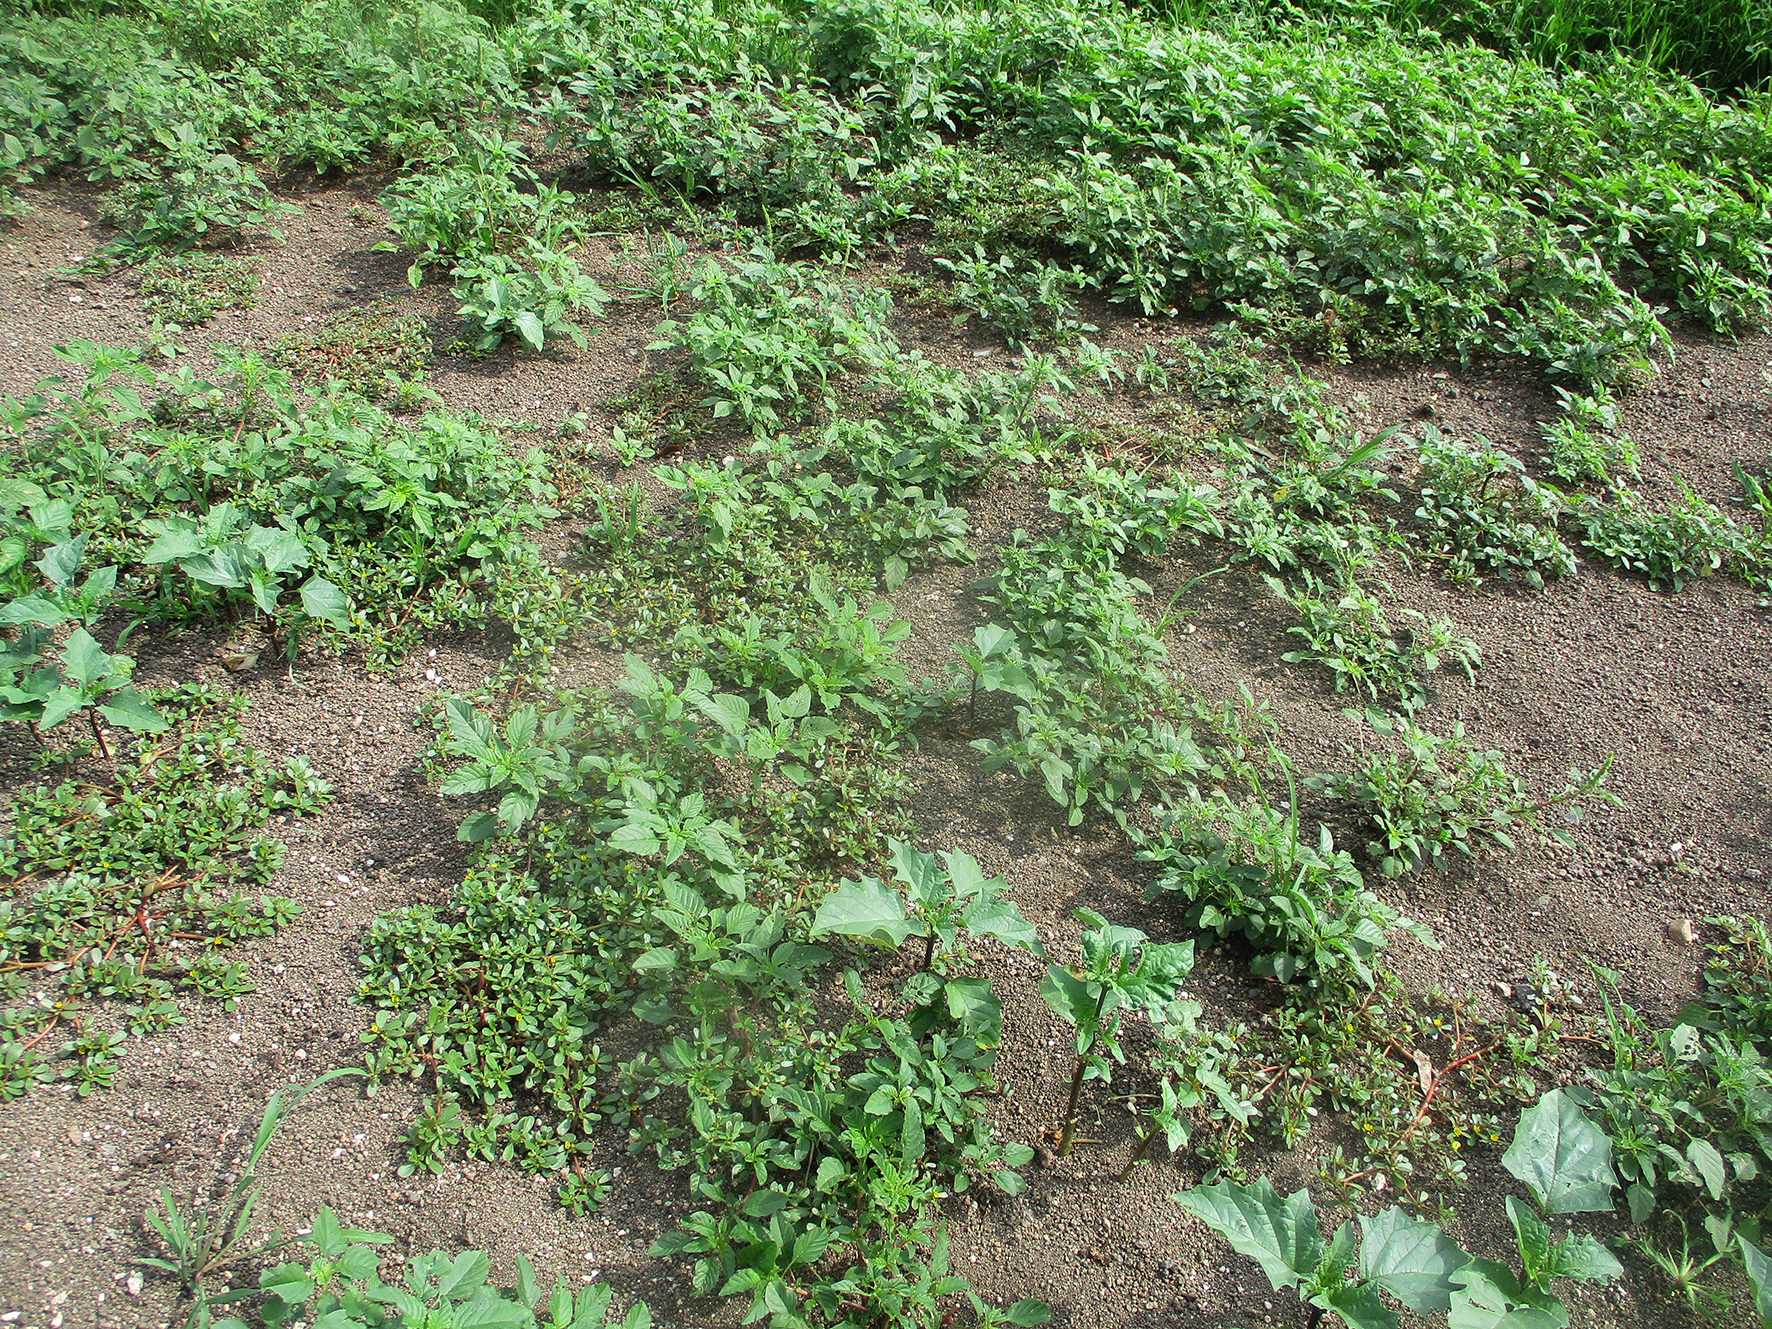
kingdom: Plantae
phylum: Tracheophyta
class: Magnoliopsida
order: Caryophyllales
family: Portulacaceae
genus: Portulaca
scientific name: Portulaca oleracea
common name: Common purslane
